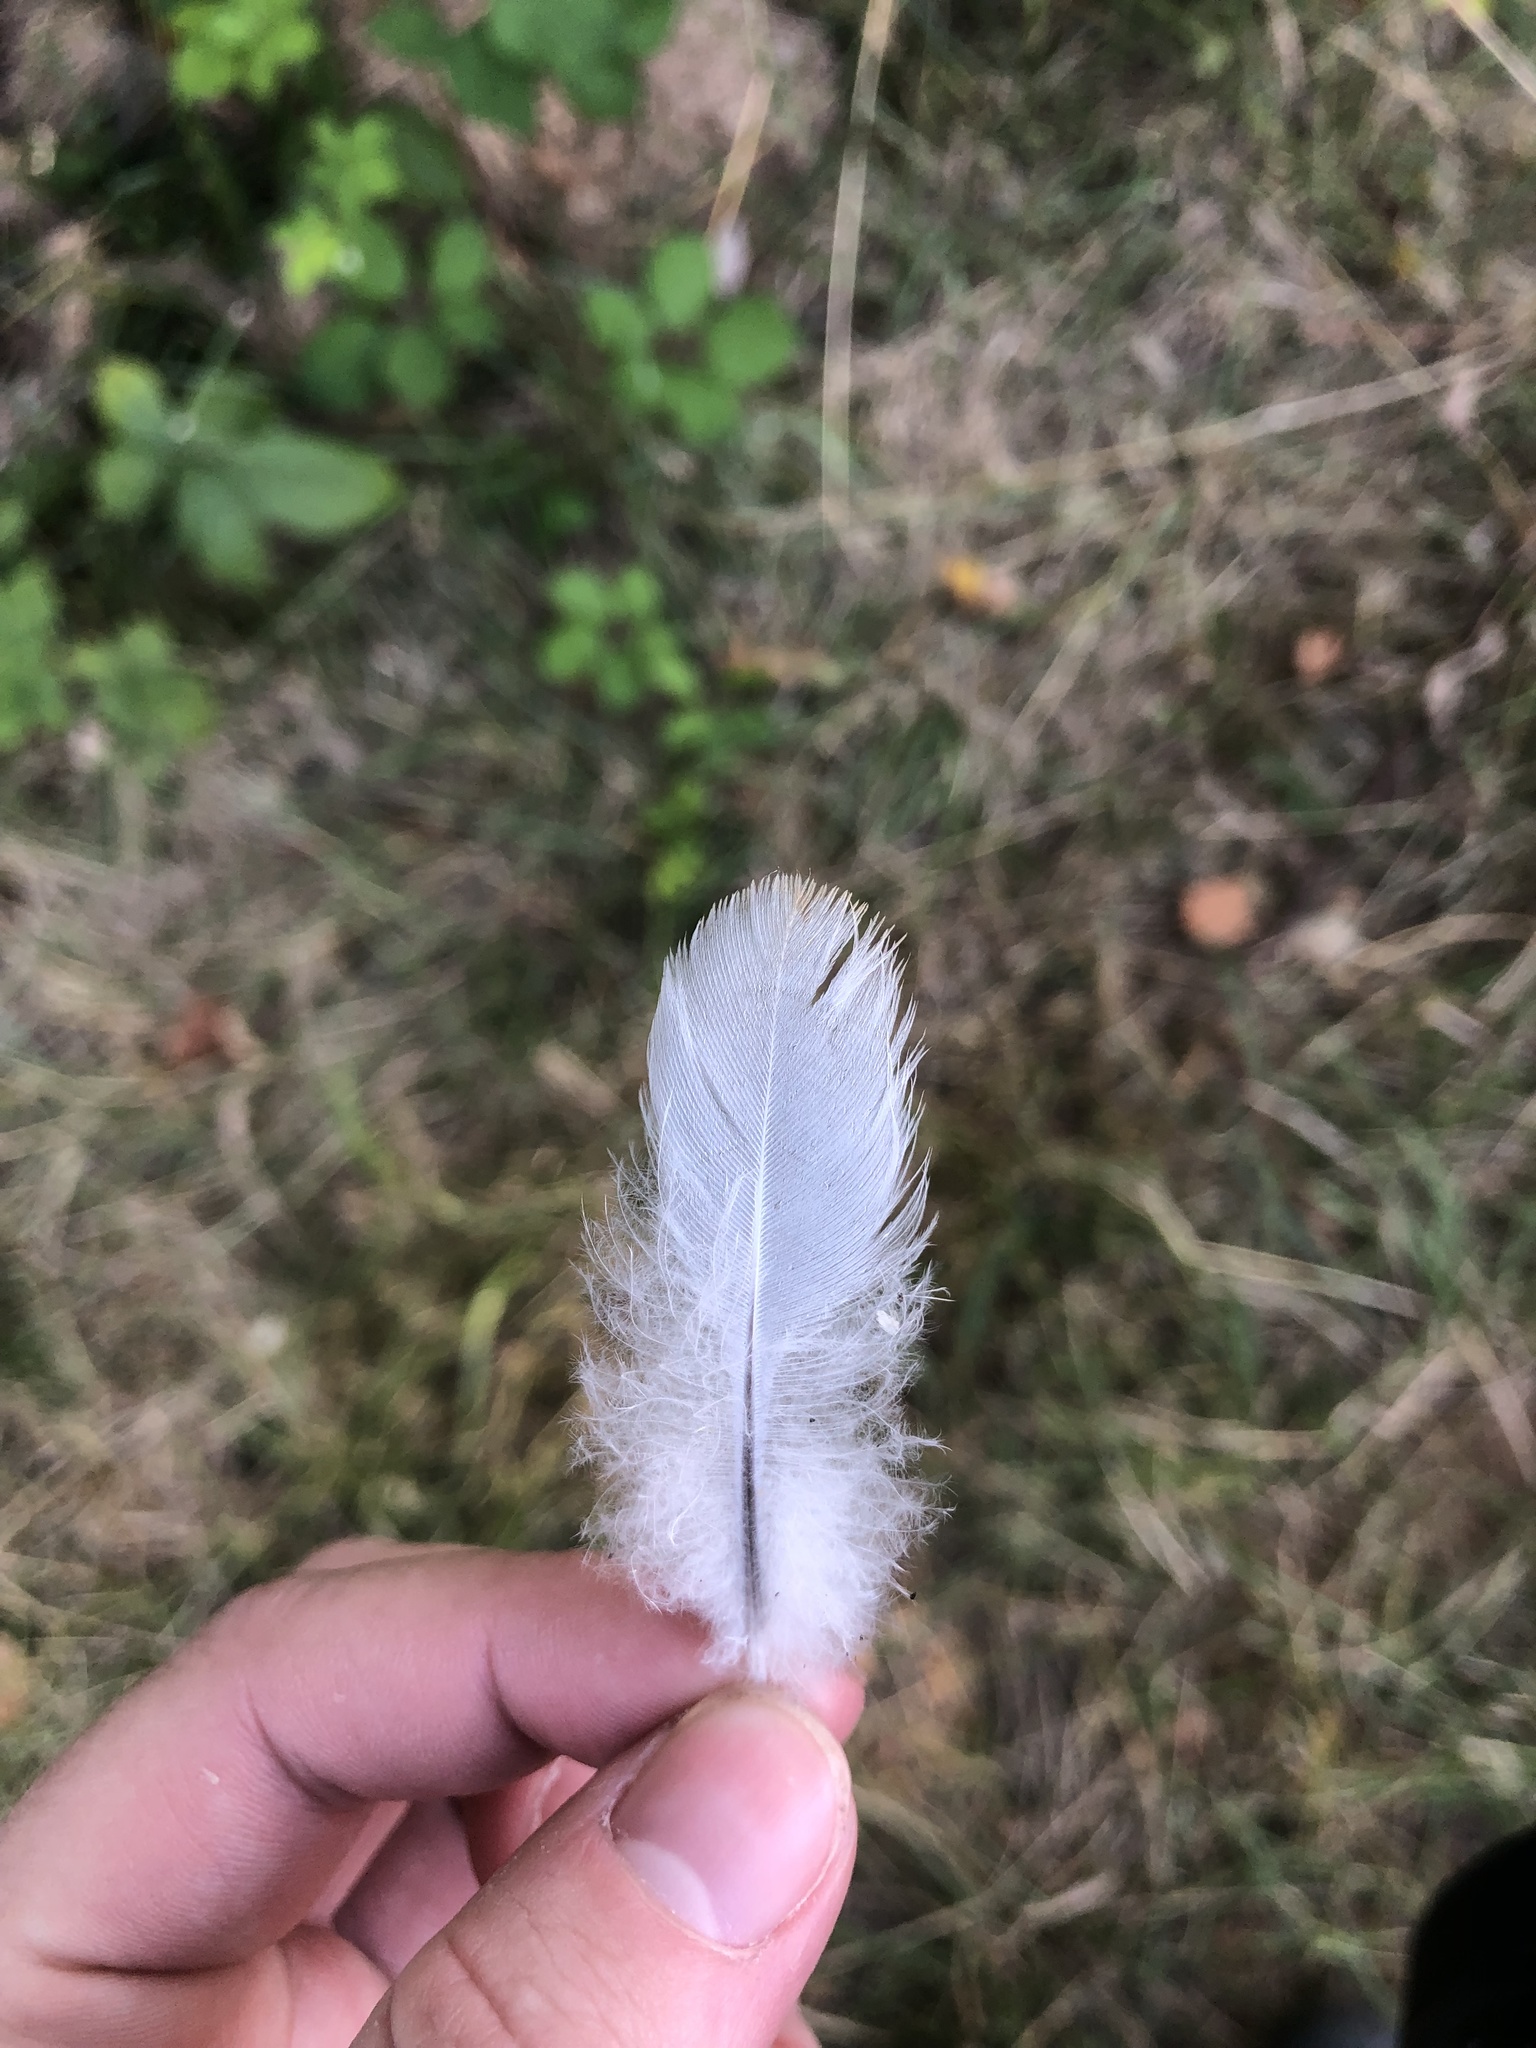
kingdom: Animalia
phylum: Chordata
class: Aves
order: Columbiformes
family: Columbidae
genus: Streptopelia
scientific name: Streptopelia decaocto
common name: Eurasian collared dove
